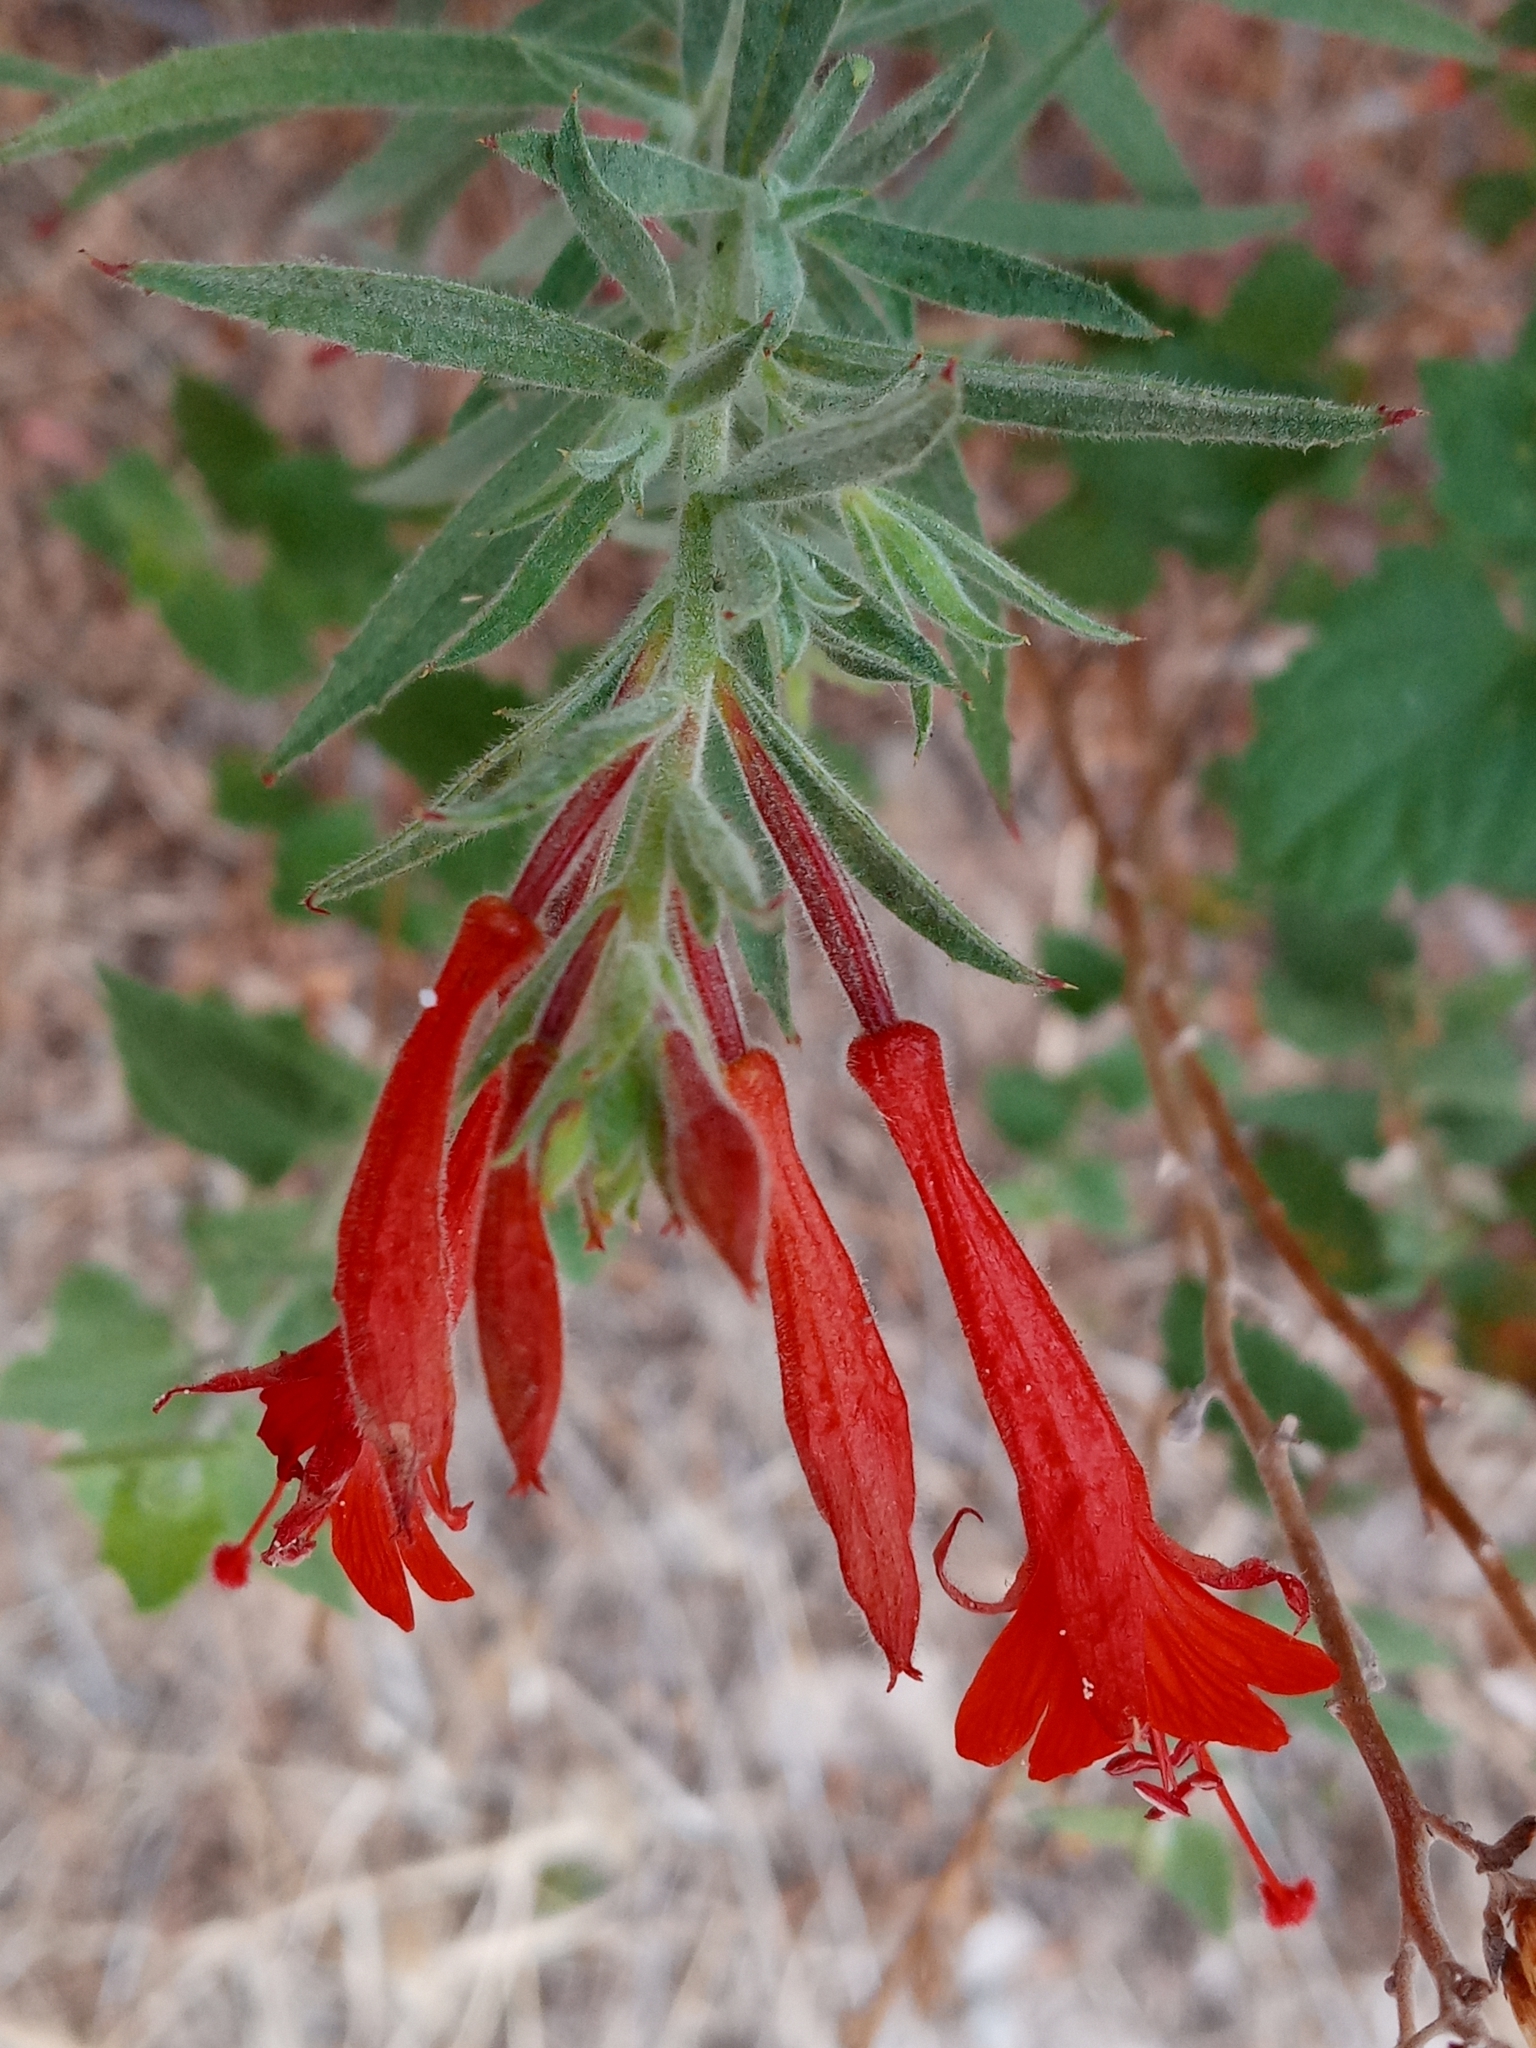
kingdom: Plantae
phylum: Tracheophyta
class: Magnoliopsida
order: Myrtales
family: Onagraceae
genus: Epilobium
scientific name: Epilobium canum
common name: California-fuchsia
